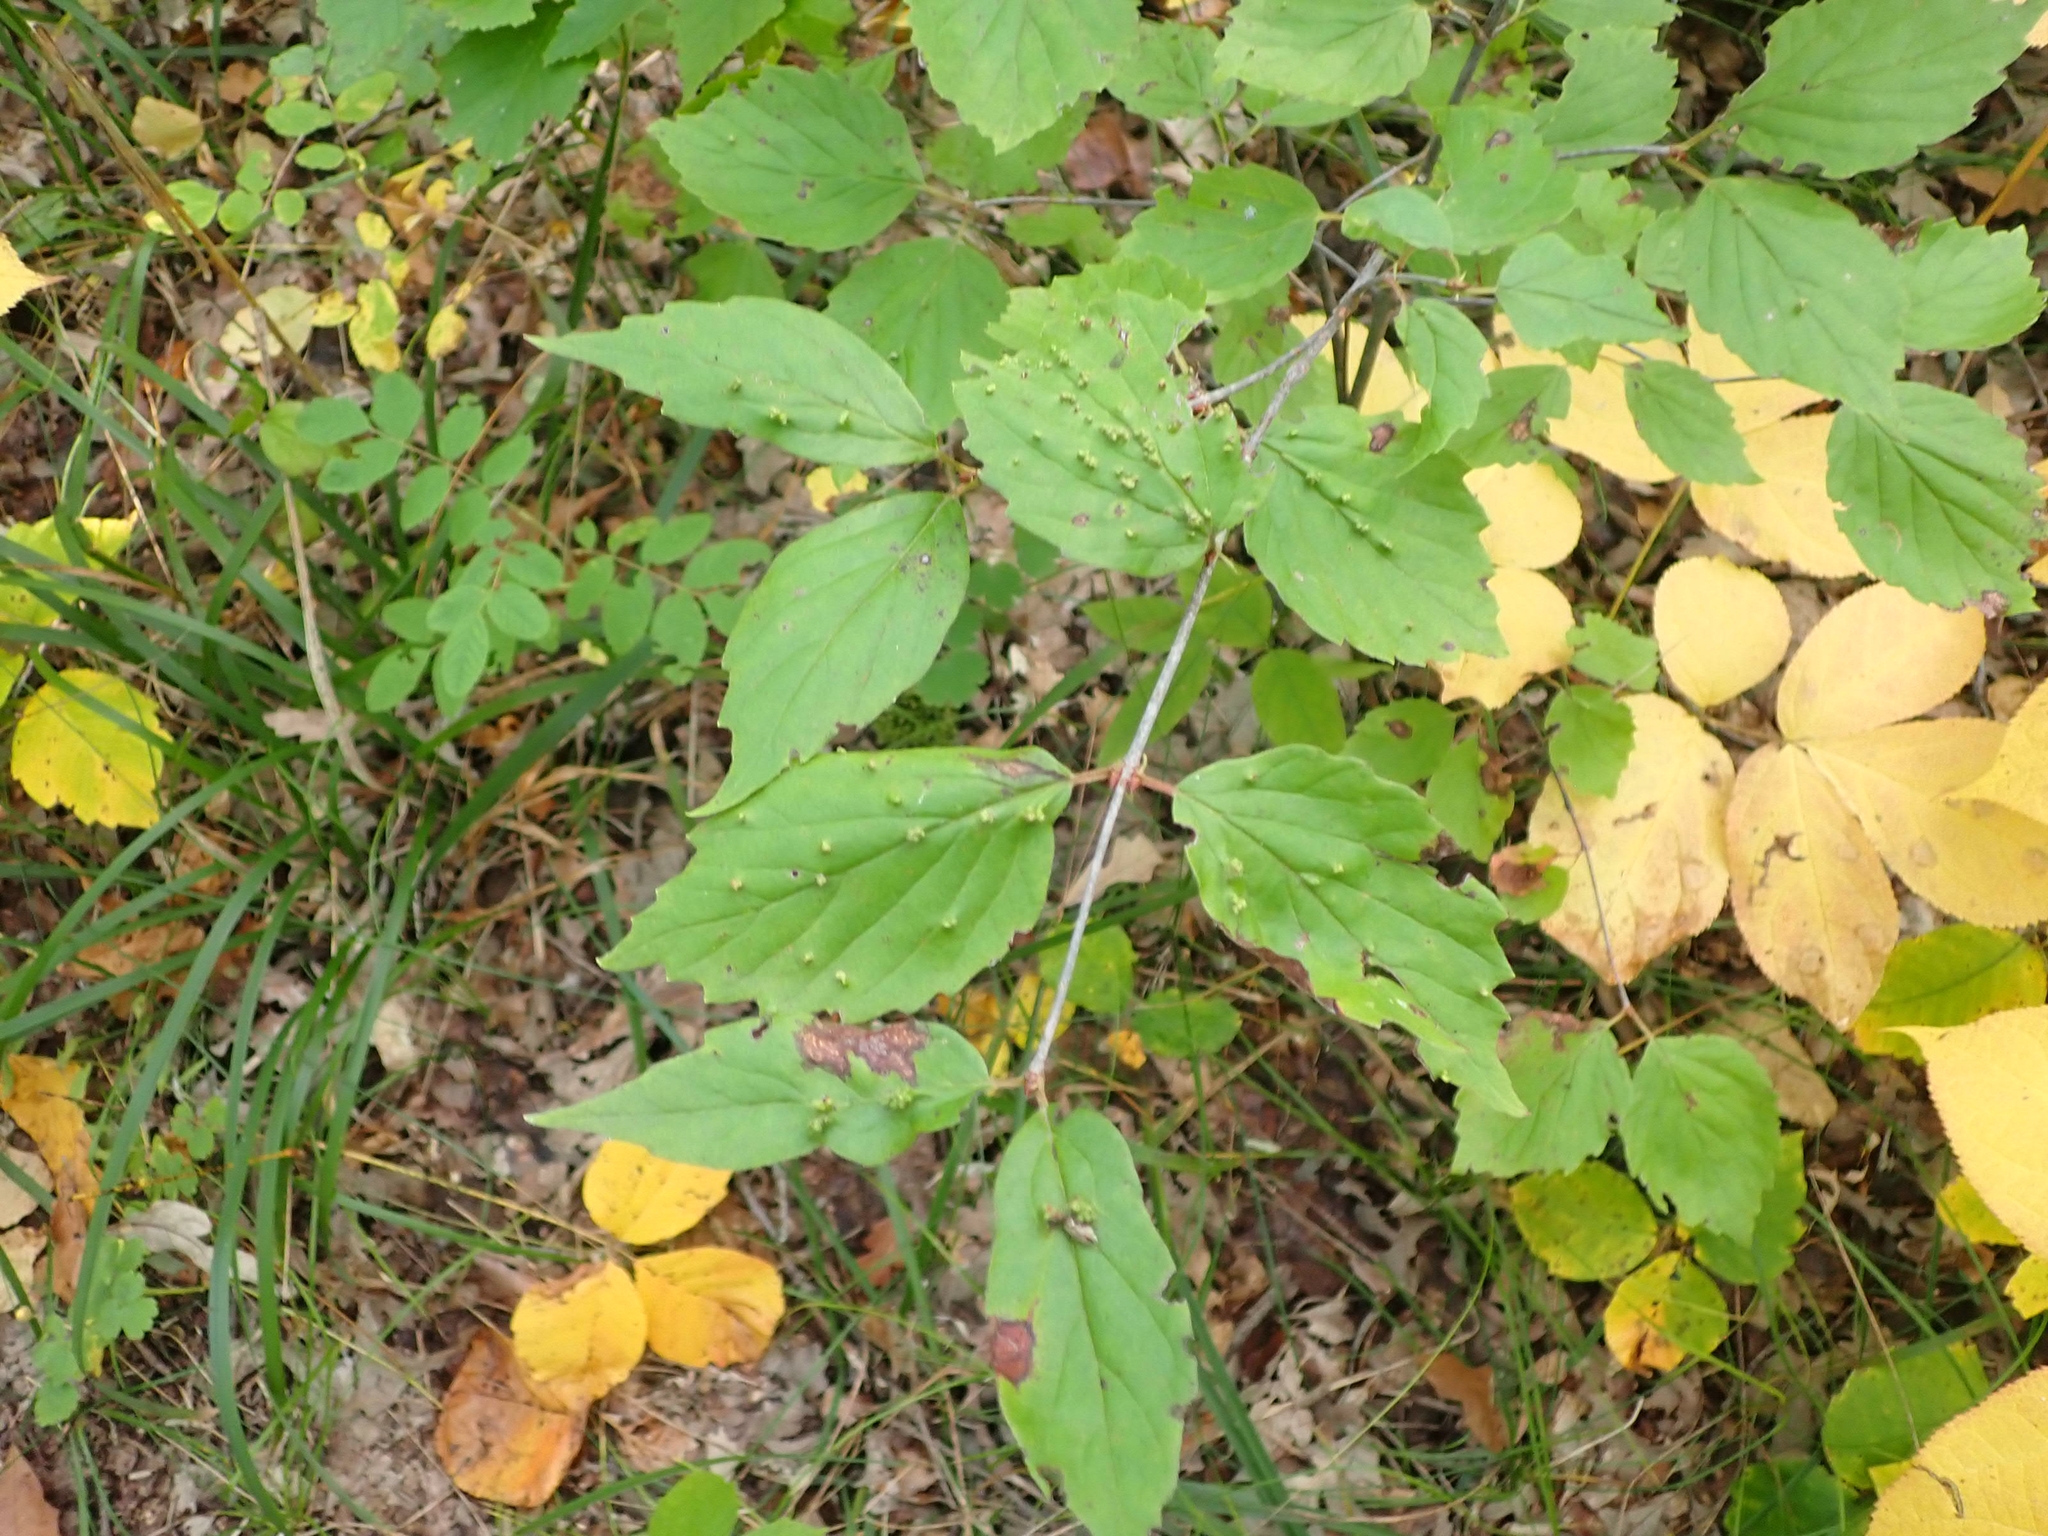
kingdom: Plantae
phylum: Tracheophyta
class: Magnoliopsida
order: Dipsacales
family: Viburnaceae
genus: Viburnum
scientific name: Viburnum rafinesqueanum
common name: Downy arrow-wood
